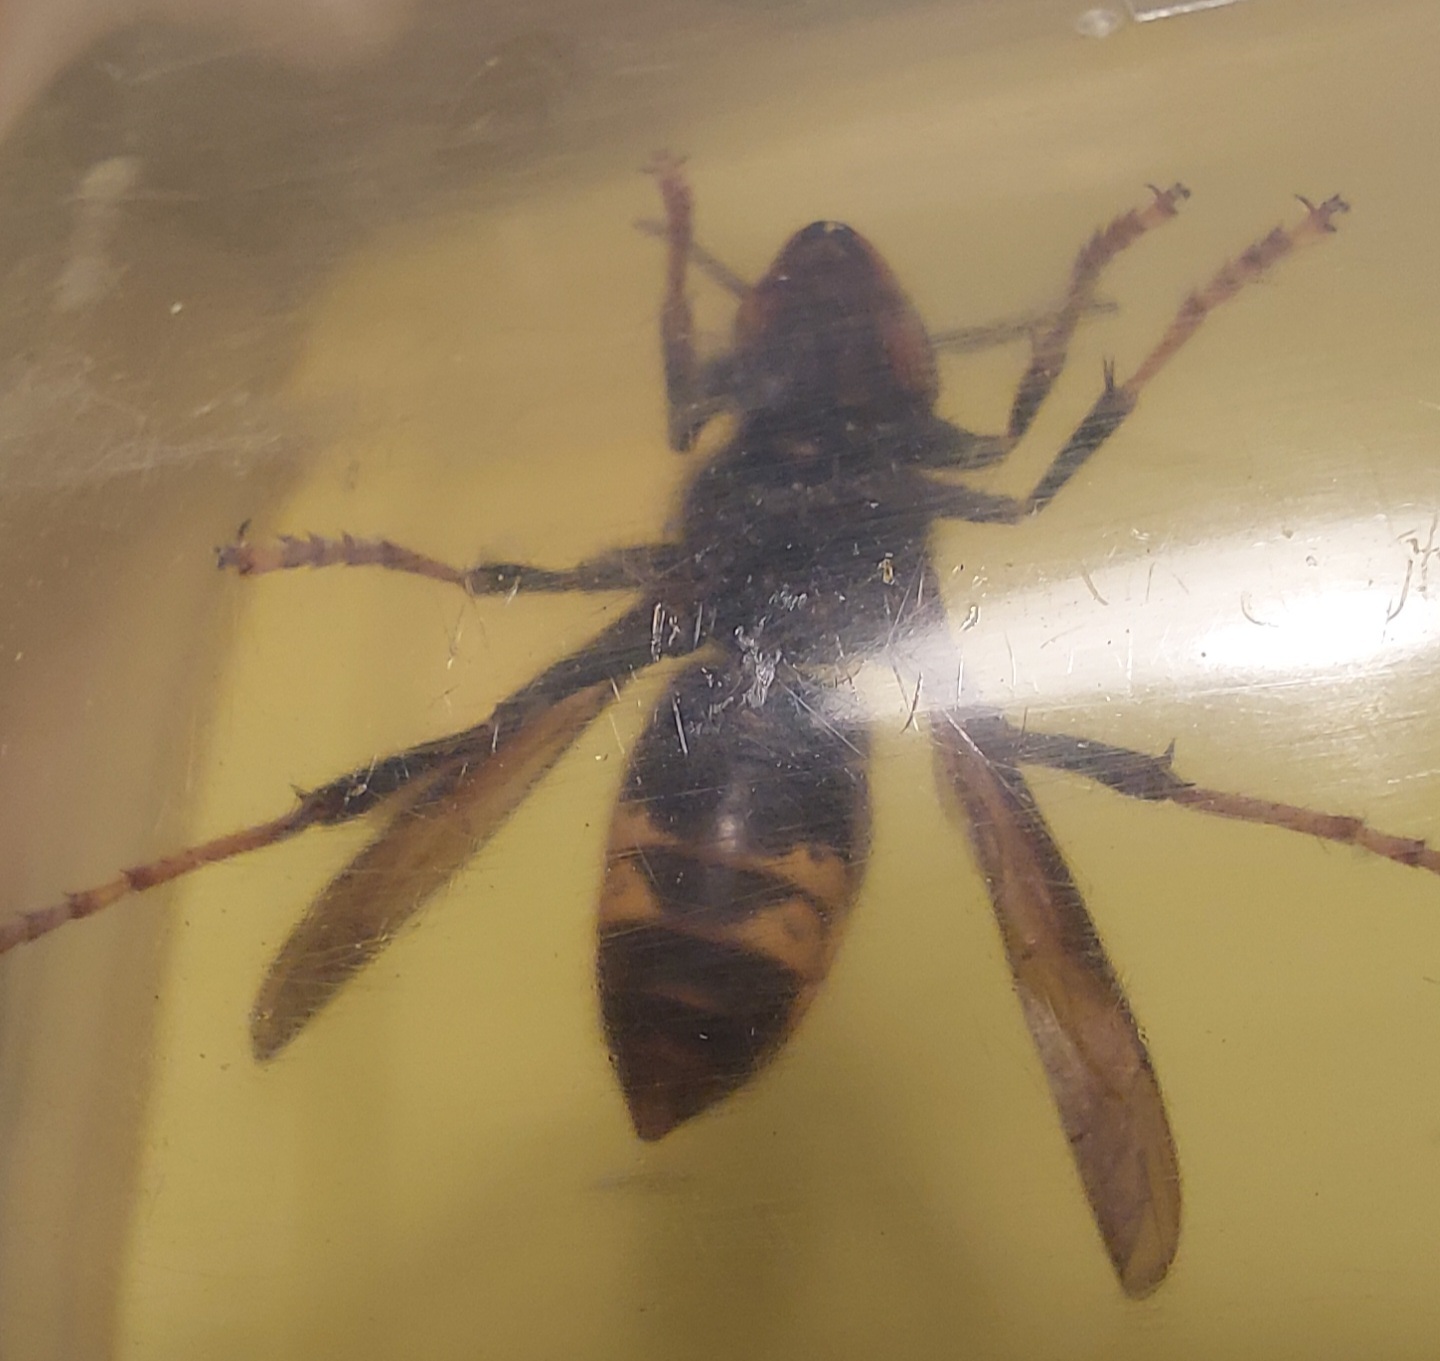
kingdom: Animalia
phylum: Arthropoda
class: Insecta
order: Hymenoptera
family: Vespidae
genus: Vespa
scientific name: Vespa velutina
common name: Asian hornet
